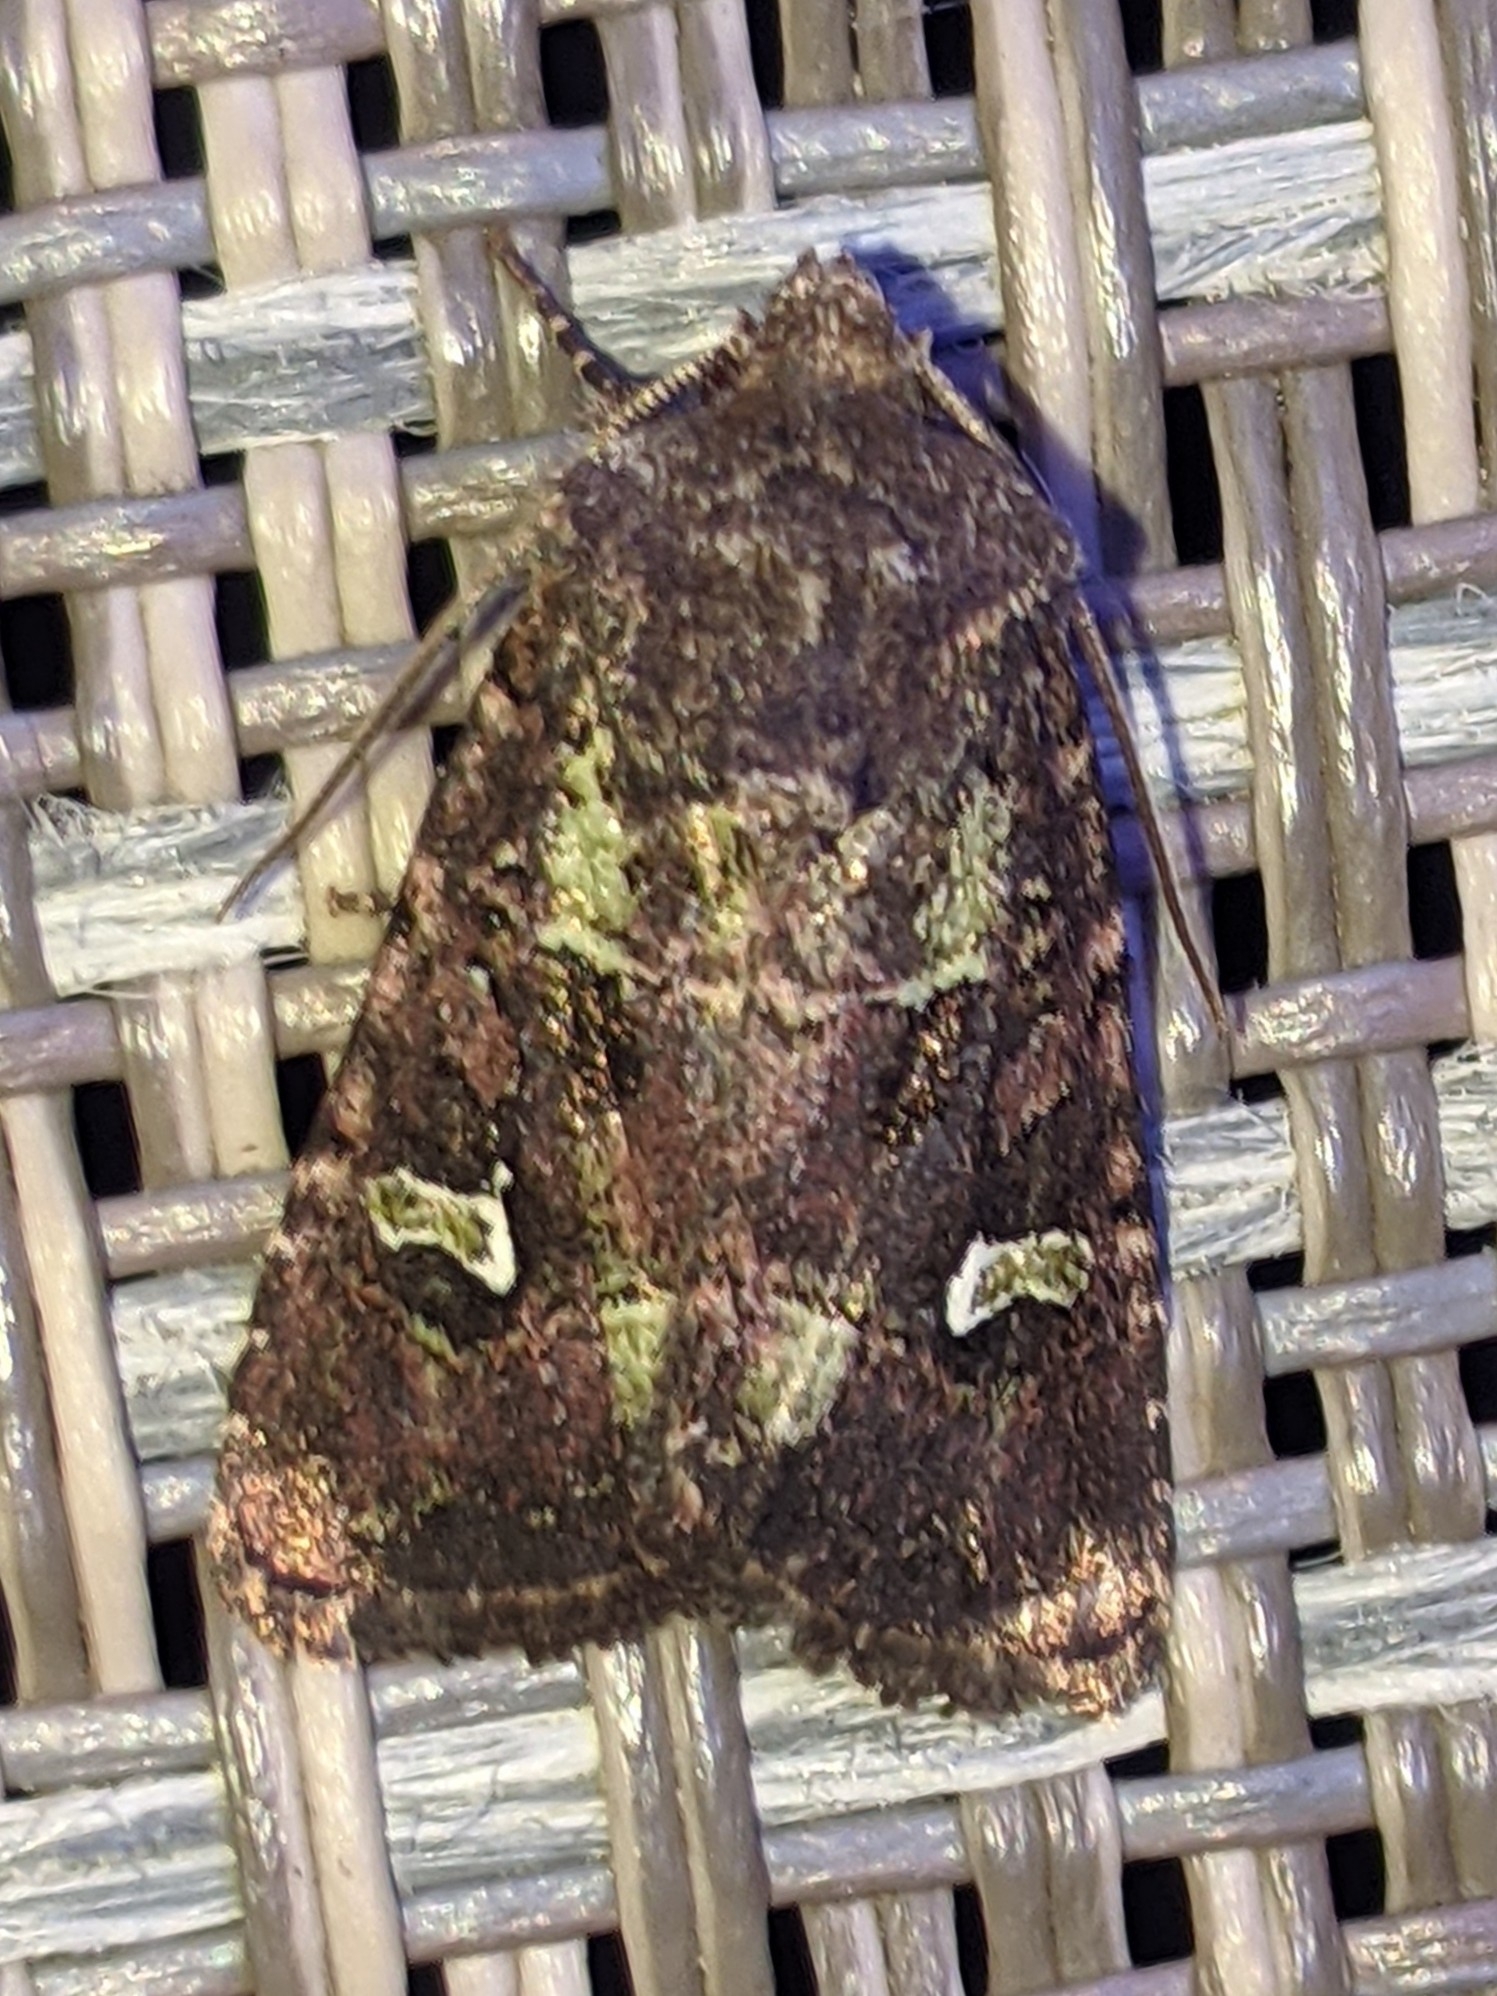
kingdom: Animalia
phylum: Arthropoda
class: Insecta
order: Lepidoptera
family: Noctuidae
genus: Lacinipolia
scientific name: Lacinipolia renigera
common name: Kidney-spotted minor
